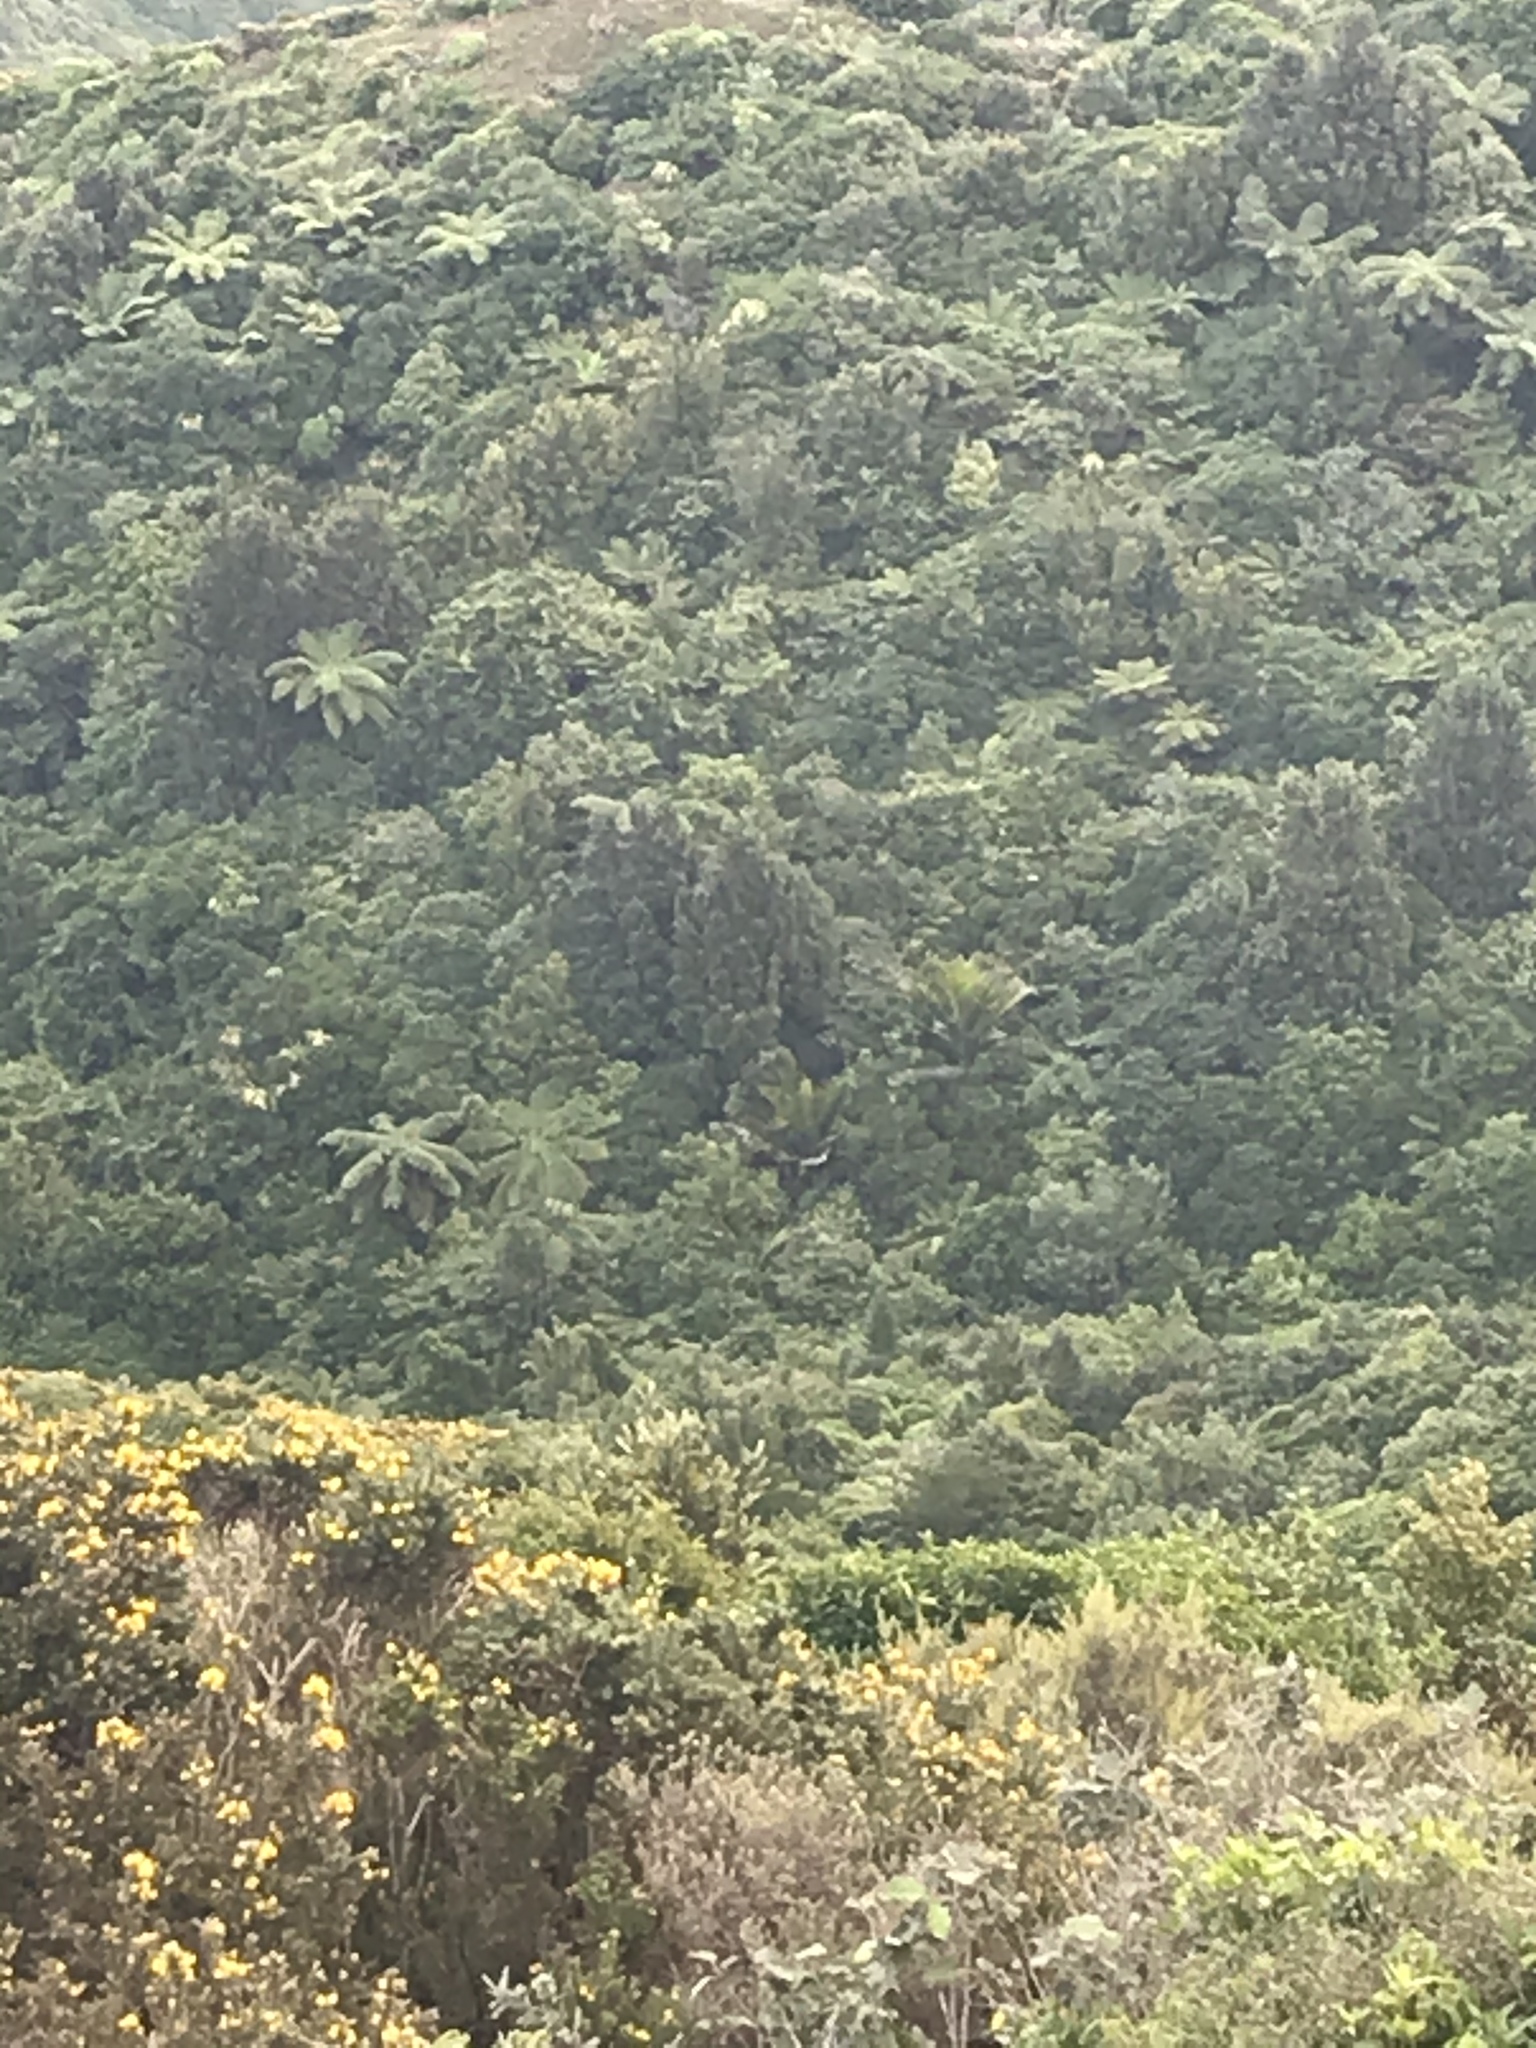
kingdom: Plantae
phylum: Tracheophyta
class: Liliopsida
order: Arecales
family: Arecaceae
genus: Rhopalostylis
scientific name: Rhopalostylis sapida
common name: Feather-duster palm
